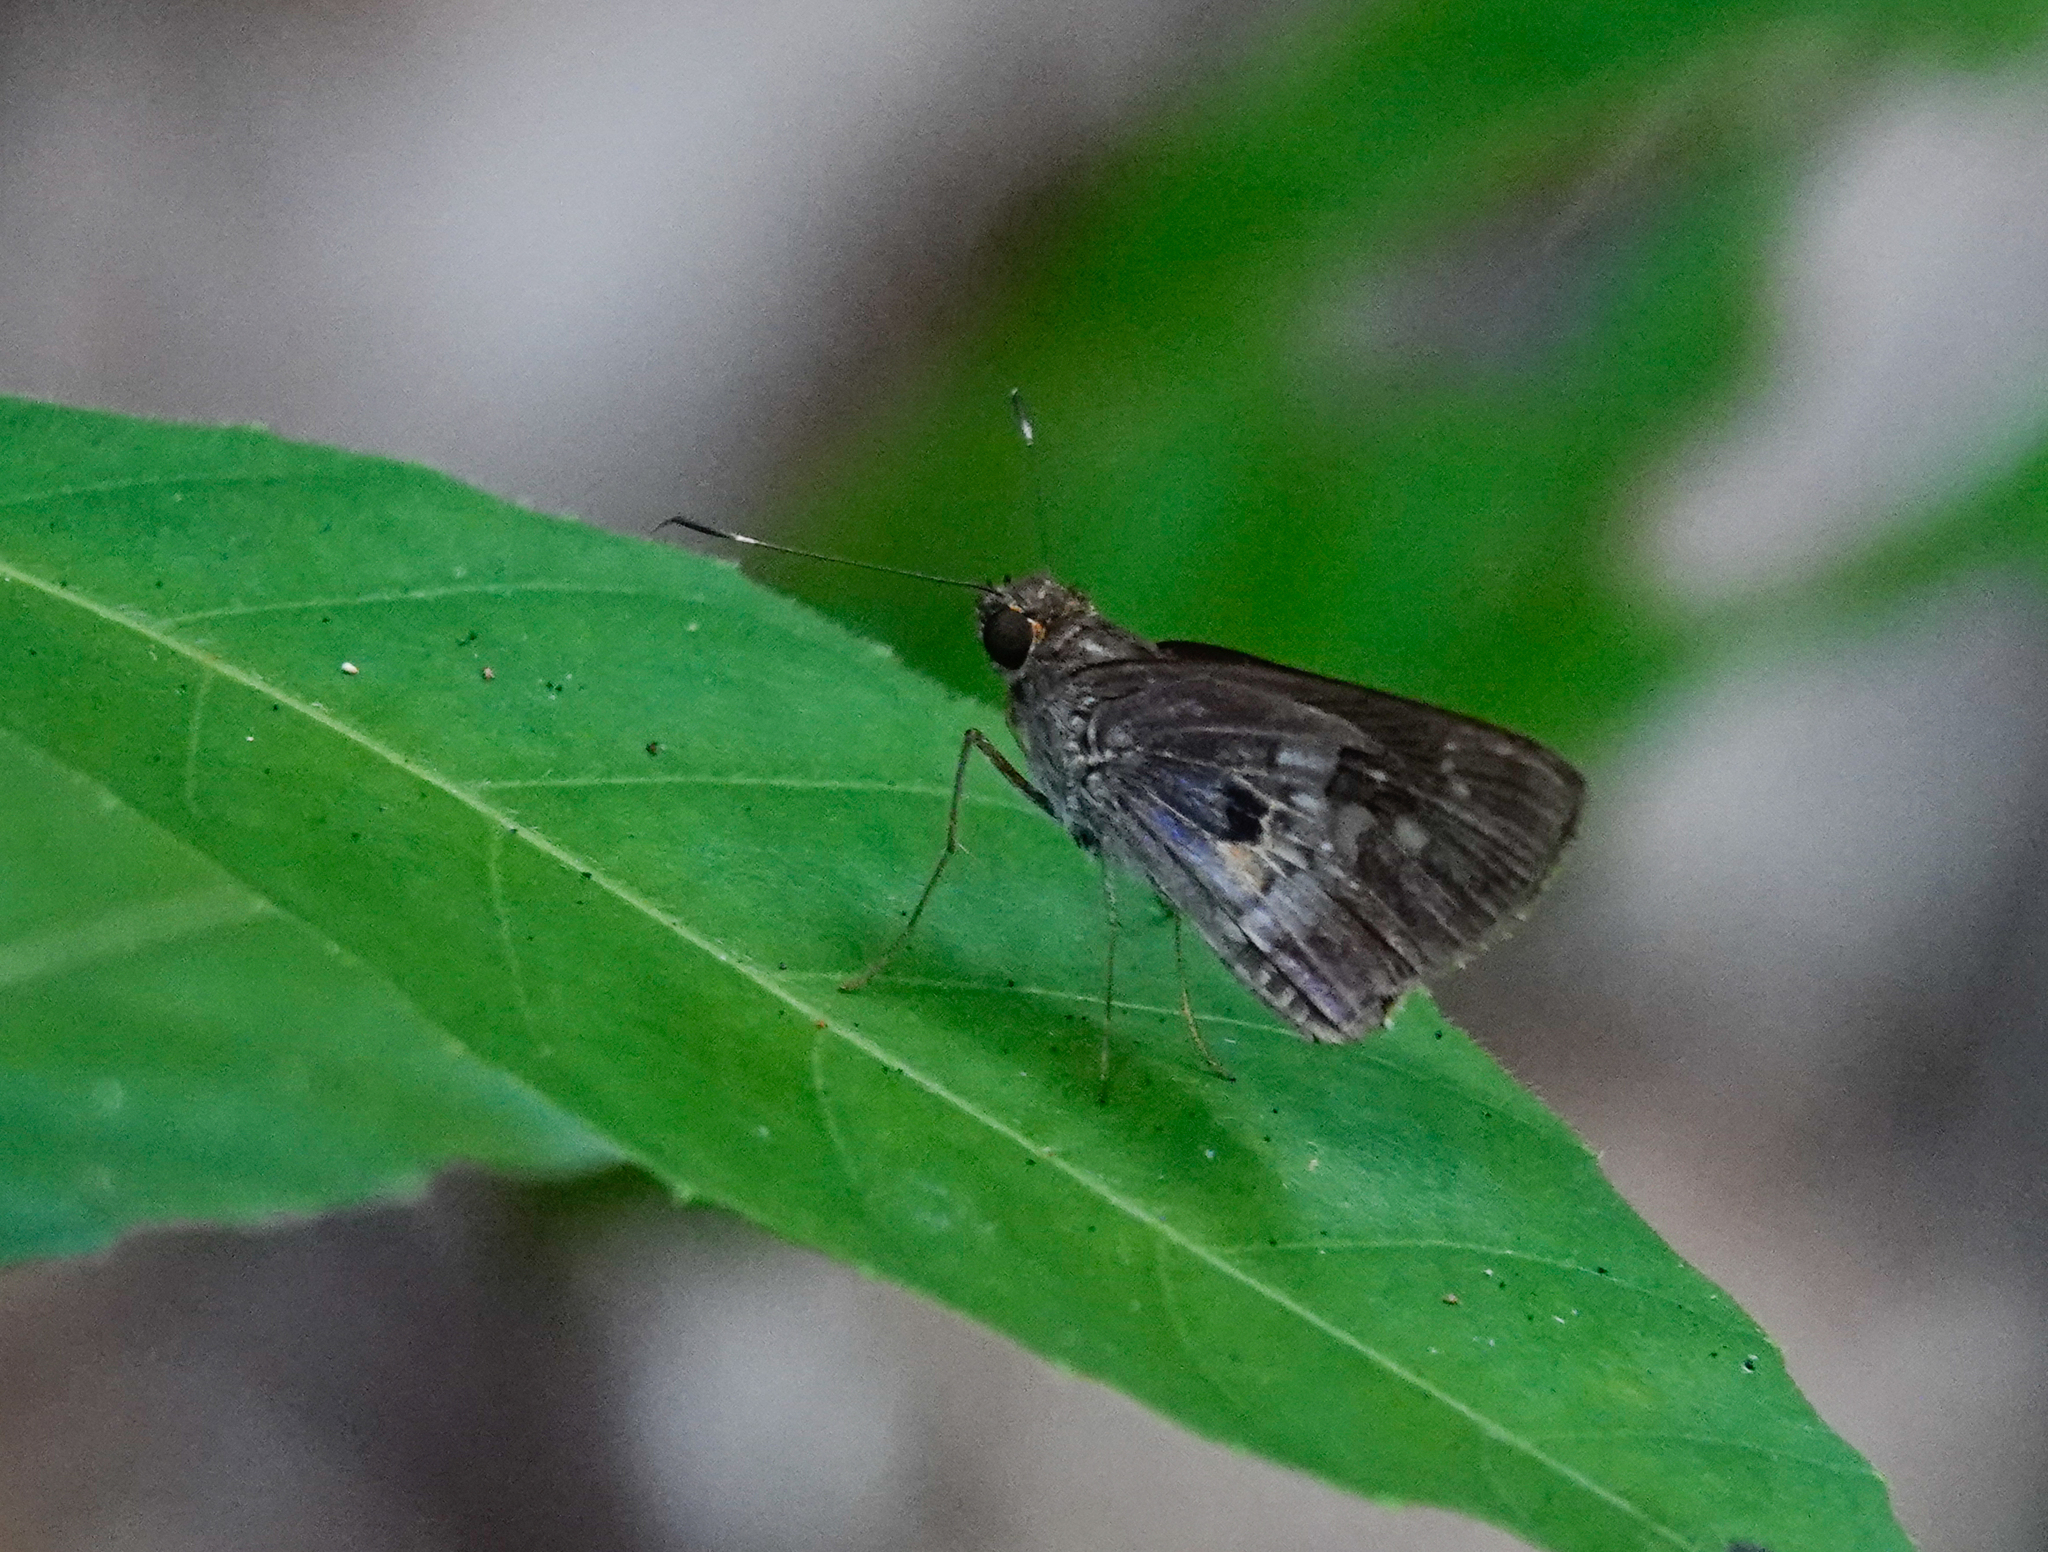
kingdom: Animalia
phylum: Arthropoda
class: Insecta
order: Lepidoptera
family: Hesperiidae
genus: Phanis
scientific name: Phanis aletes
